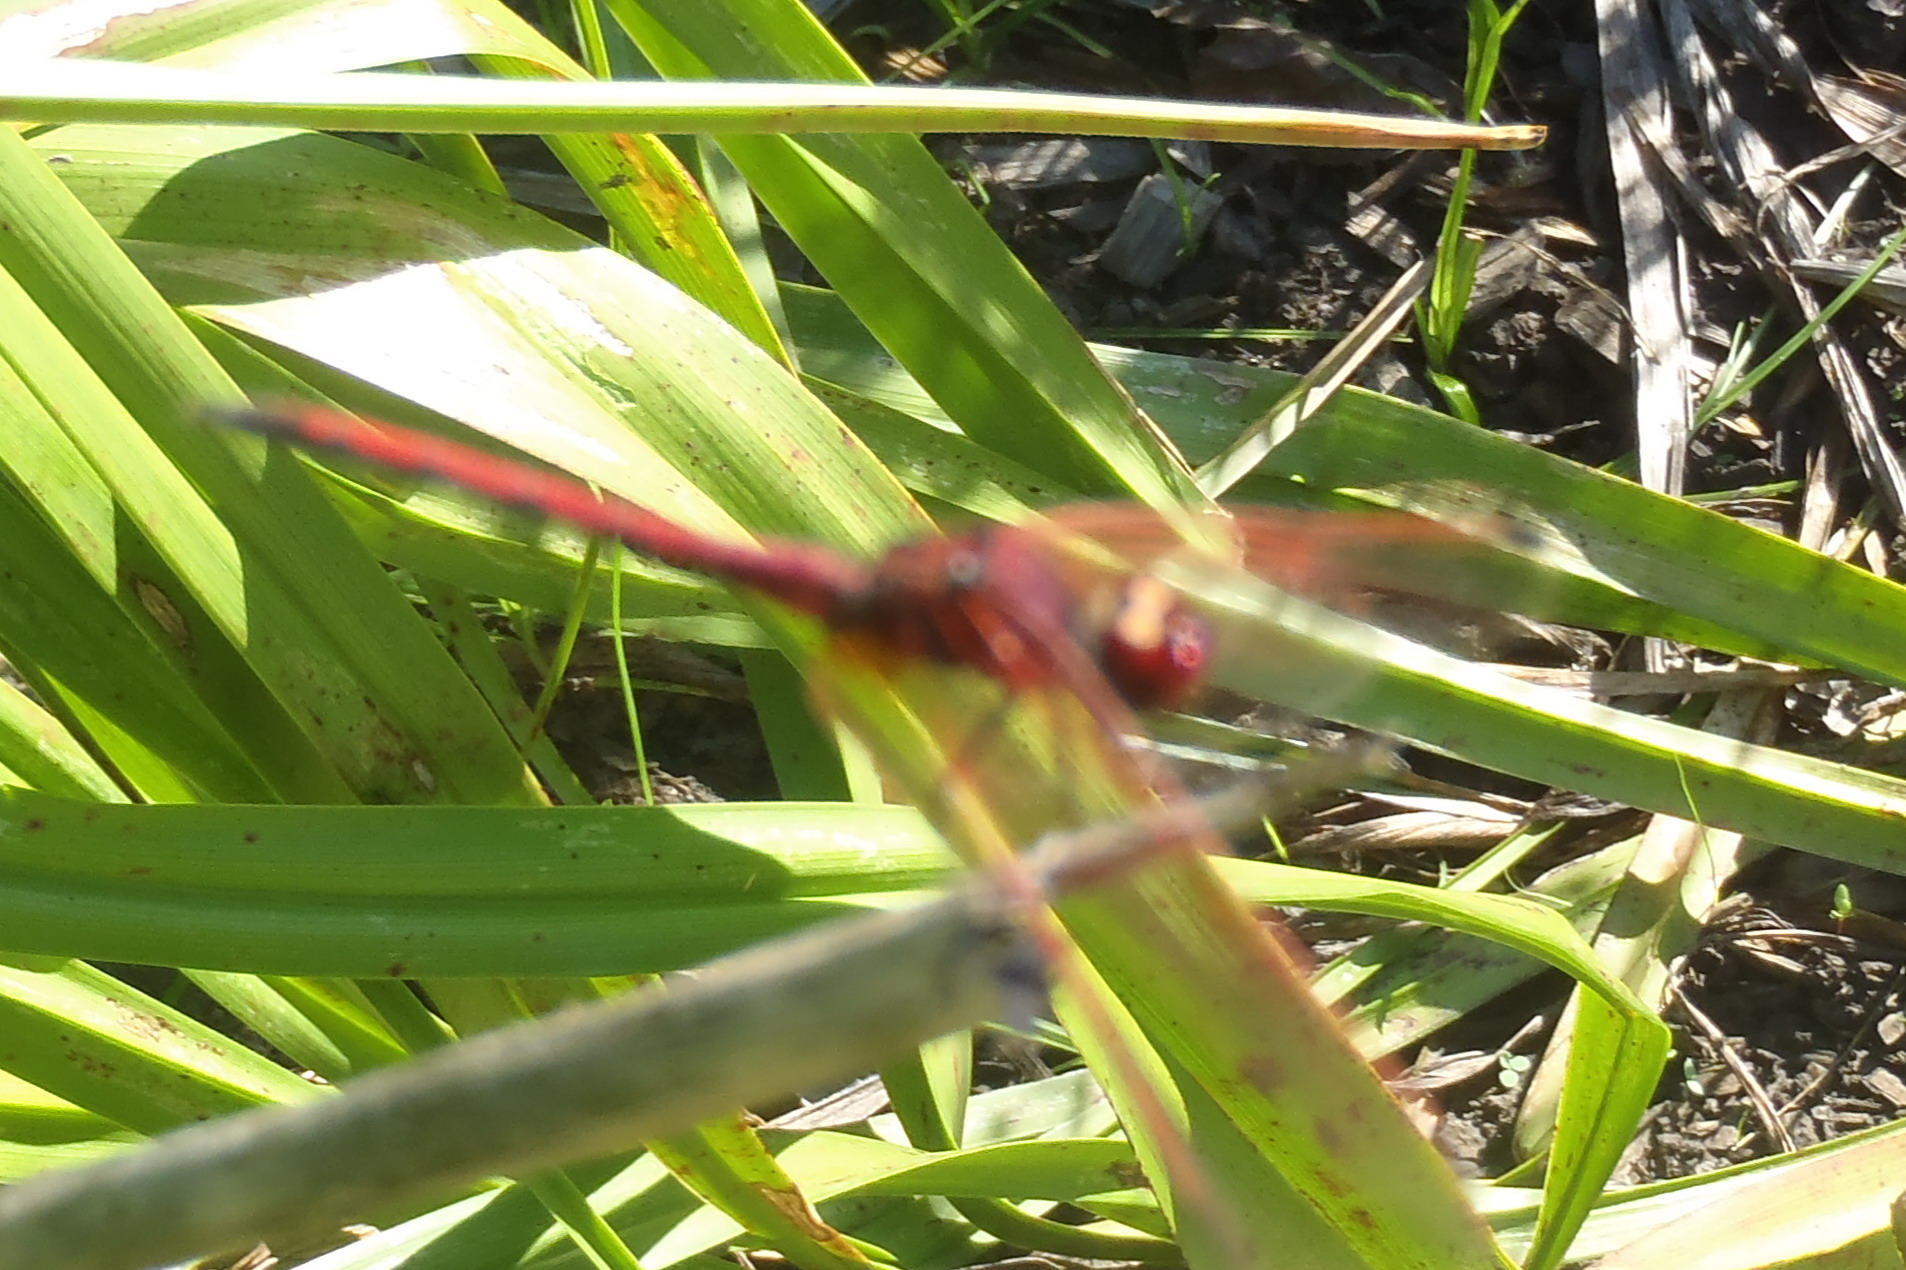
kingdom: Animalia
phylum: Arthropoda
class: Insecta
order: Odonata
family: Libellulidae
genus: Trithemis
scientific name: Trithemis arteriosa
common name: Red-veined dropwing
